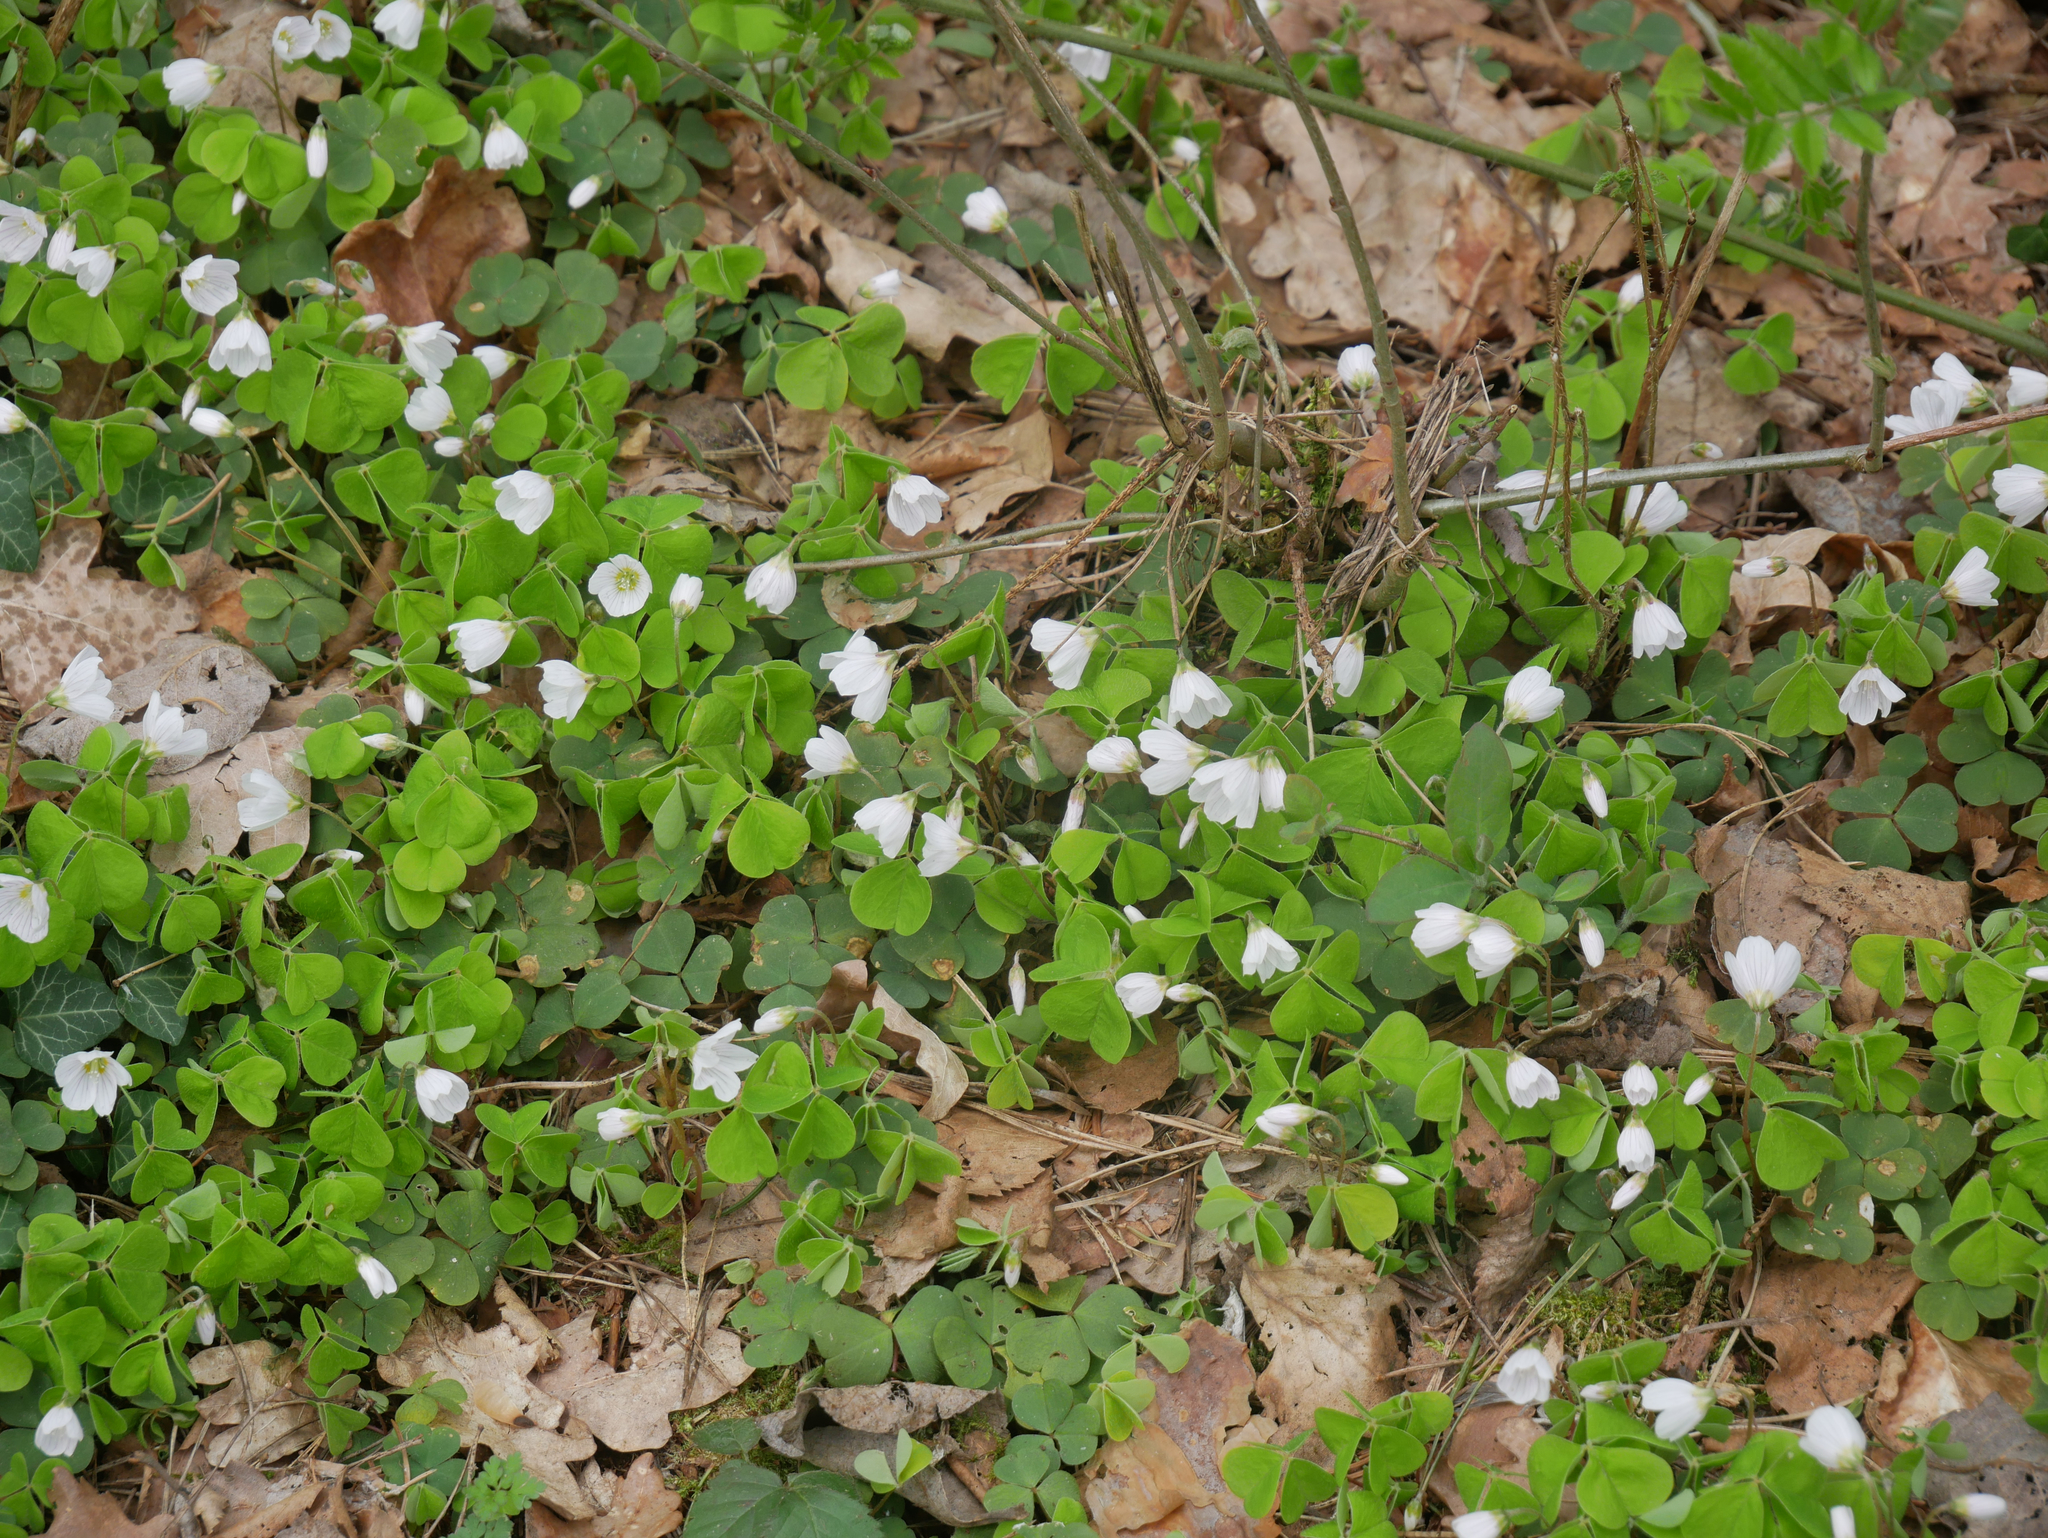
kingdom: Plantae
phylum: Tracheophyta
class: Magnoliopsida
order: Oxalidales
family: Oxalidaceae
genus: Oxalis
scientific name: Oxalis acetosella
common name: Wood-sorrel
